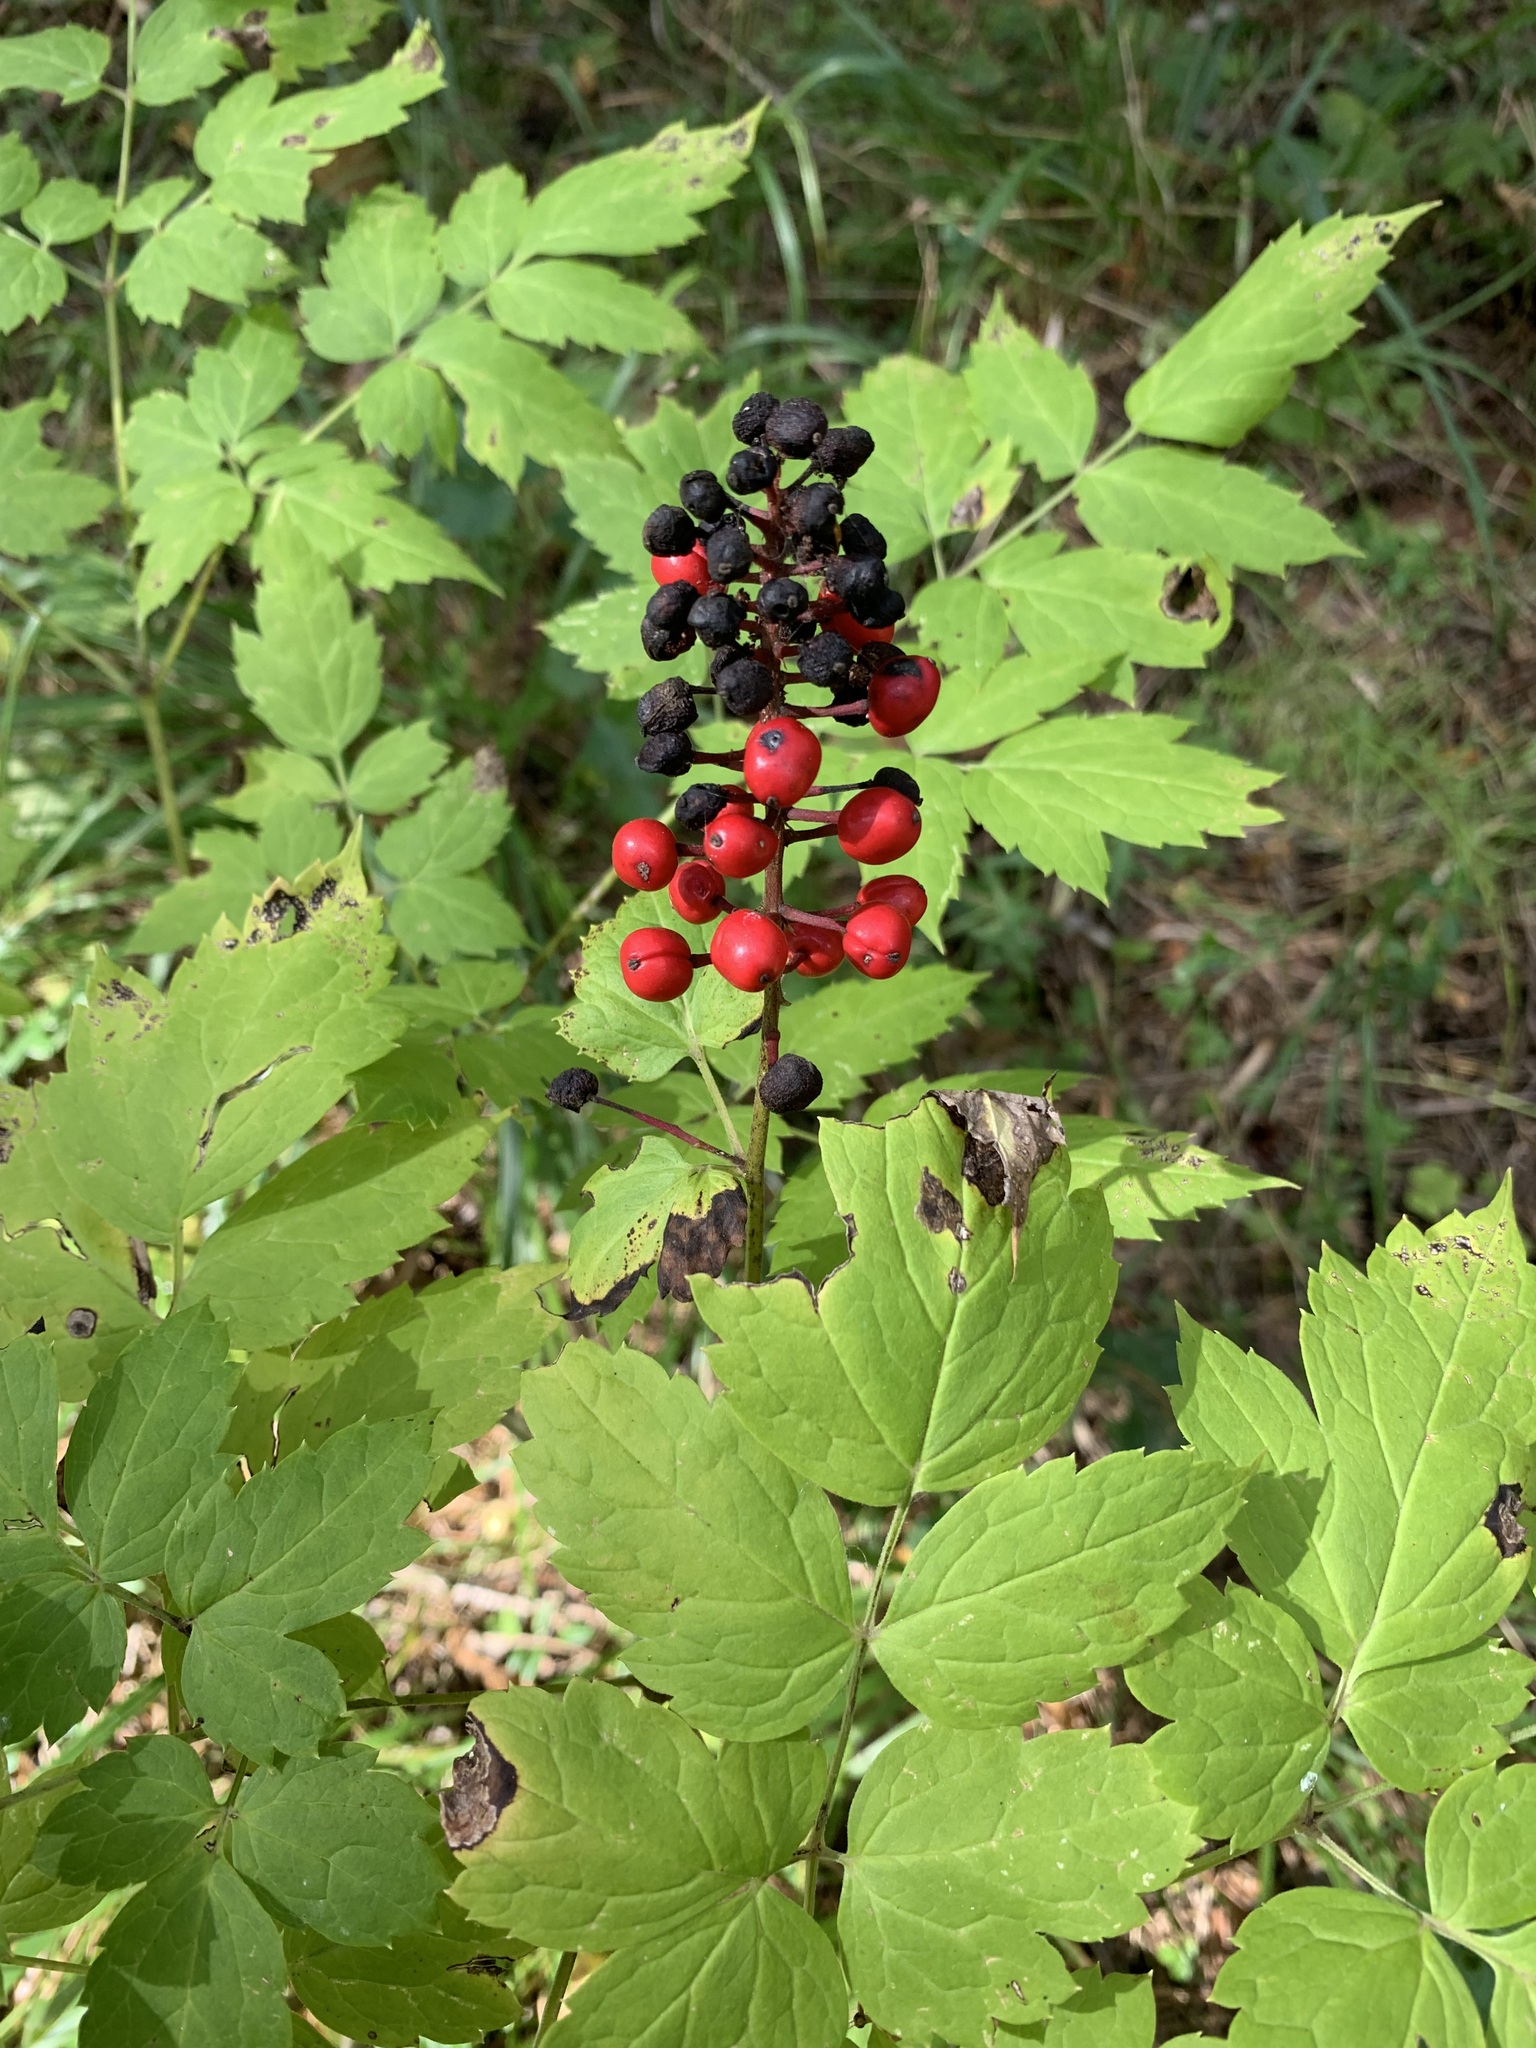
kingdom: Plantae
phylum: Tracheophyta
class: Magnoliopsida
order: Ranunculales
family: Ranunculaceae
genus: Actaea
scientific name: Actaea erythrocarpa
